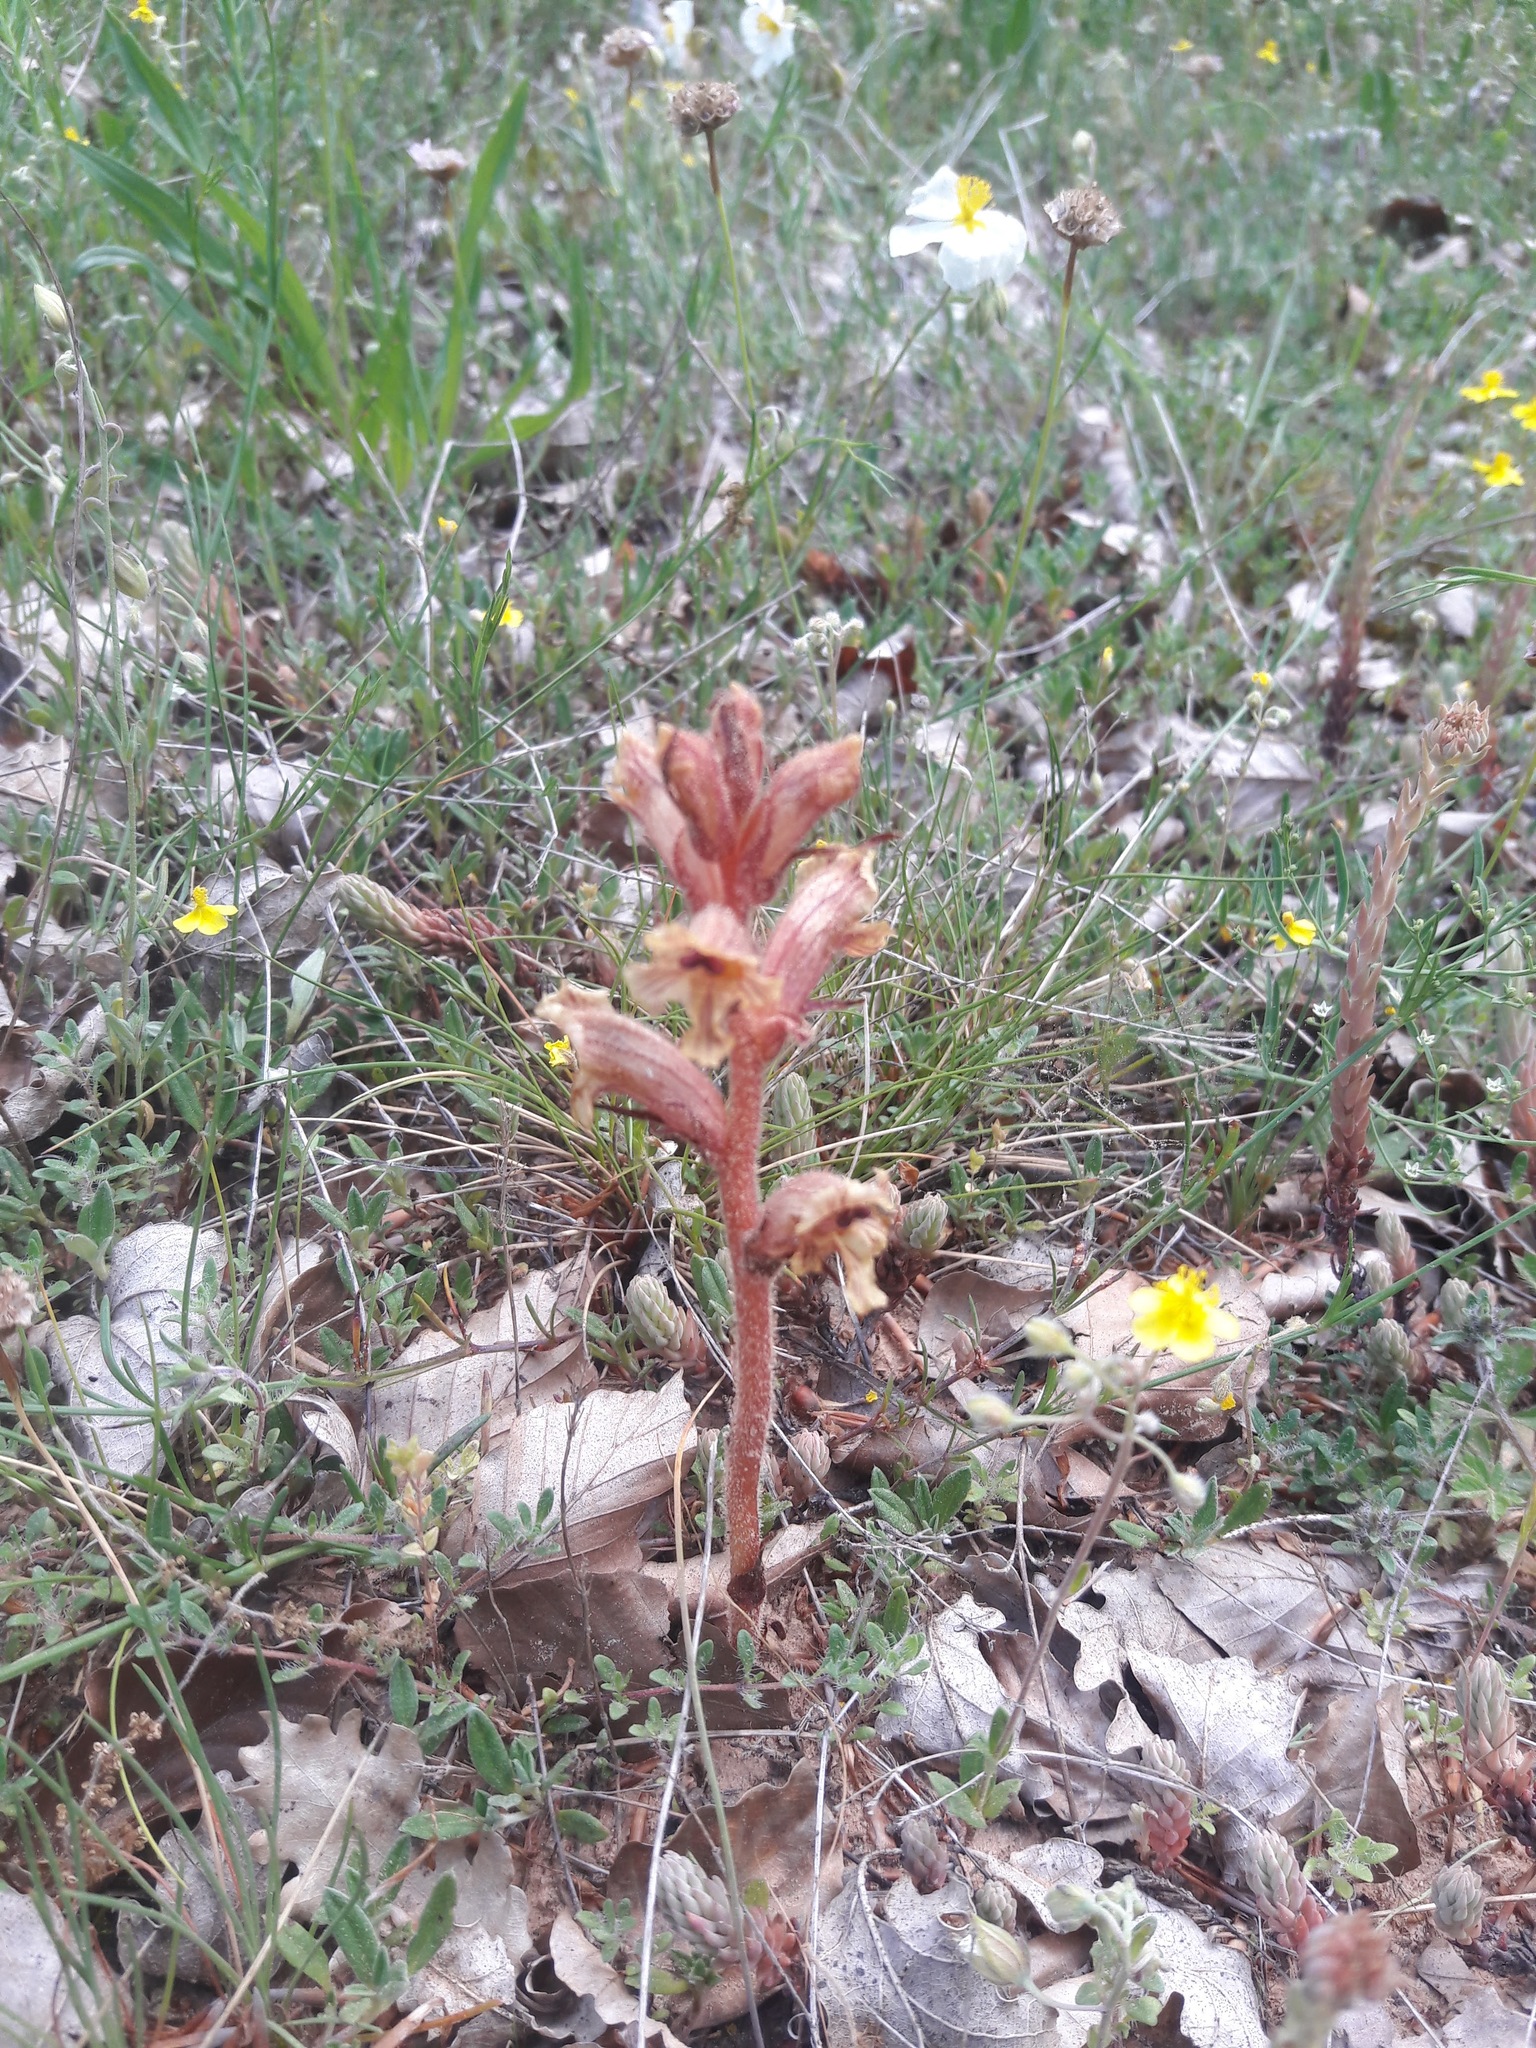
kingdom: Plantae
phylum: Tracheophyta
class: Magnoliopsida
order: Lamiales
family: Orobanchaceae
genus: Orobanche
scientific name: Orobanche alba
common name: Thyme broomrape
